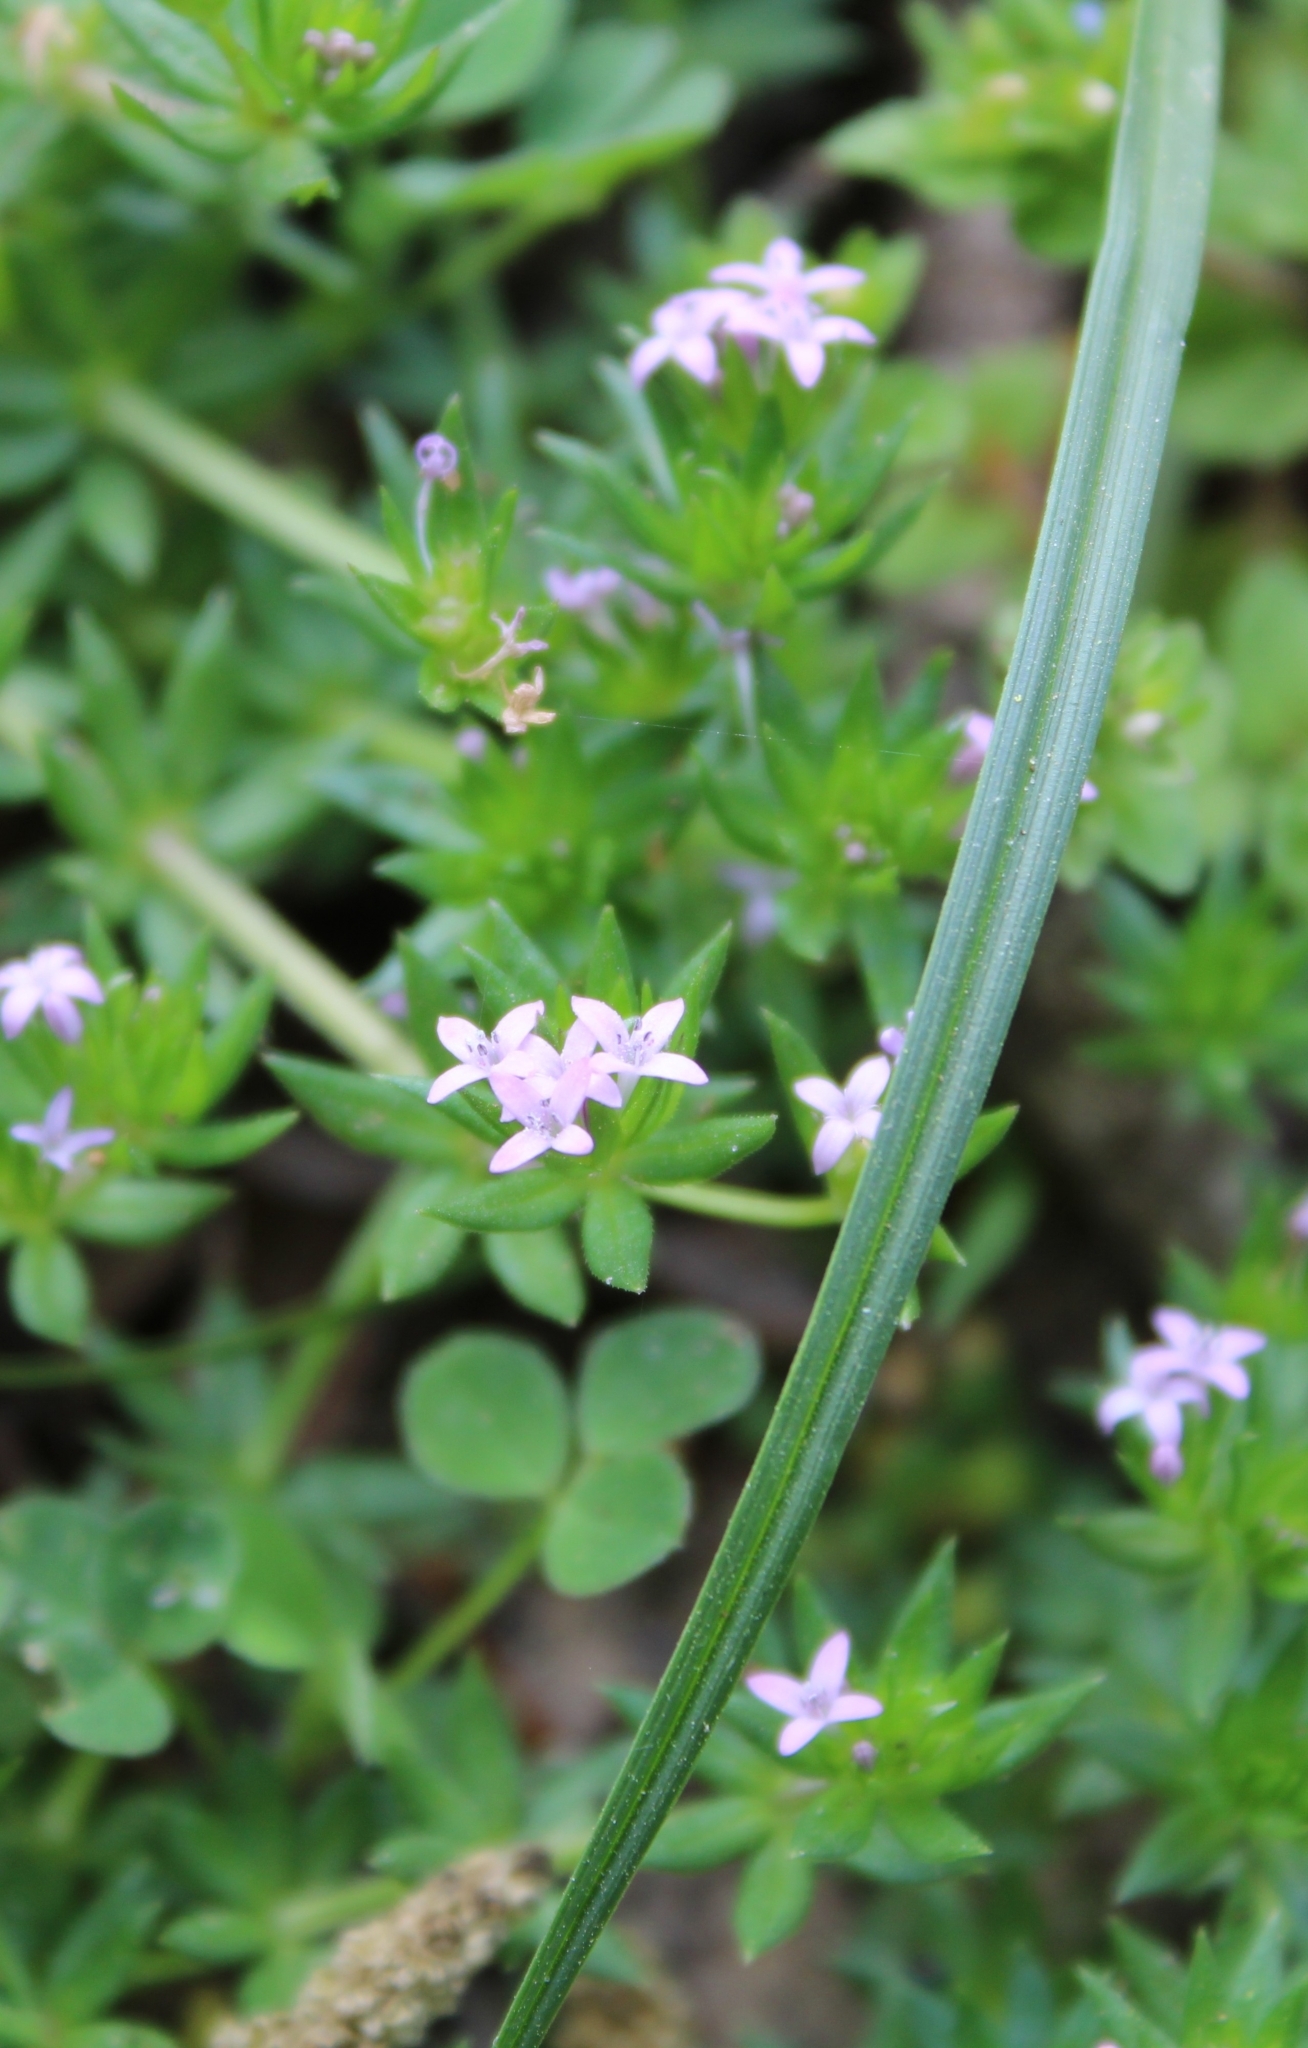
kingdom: Plantae
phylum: Tracheophyta
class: Magnoliopsida
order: Gentianales
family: Rubiaceae
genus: Sherardia
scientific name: Sherardia arvensis
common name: Field madder
